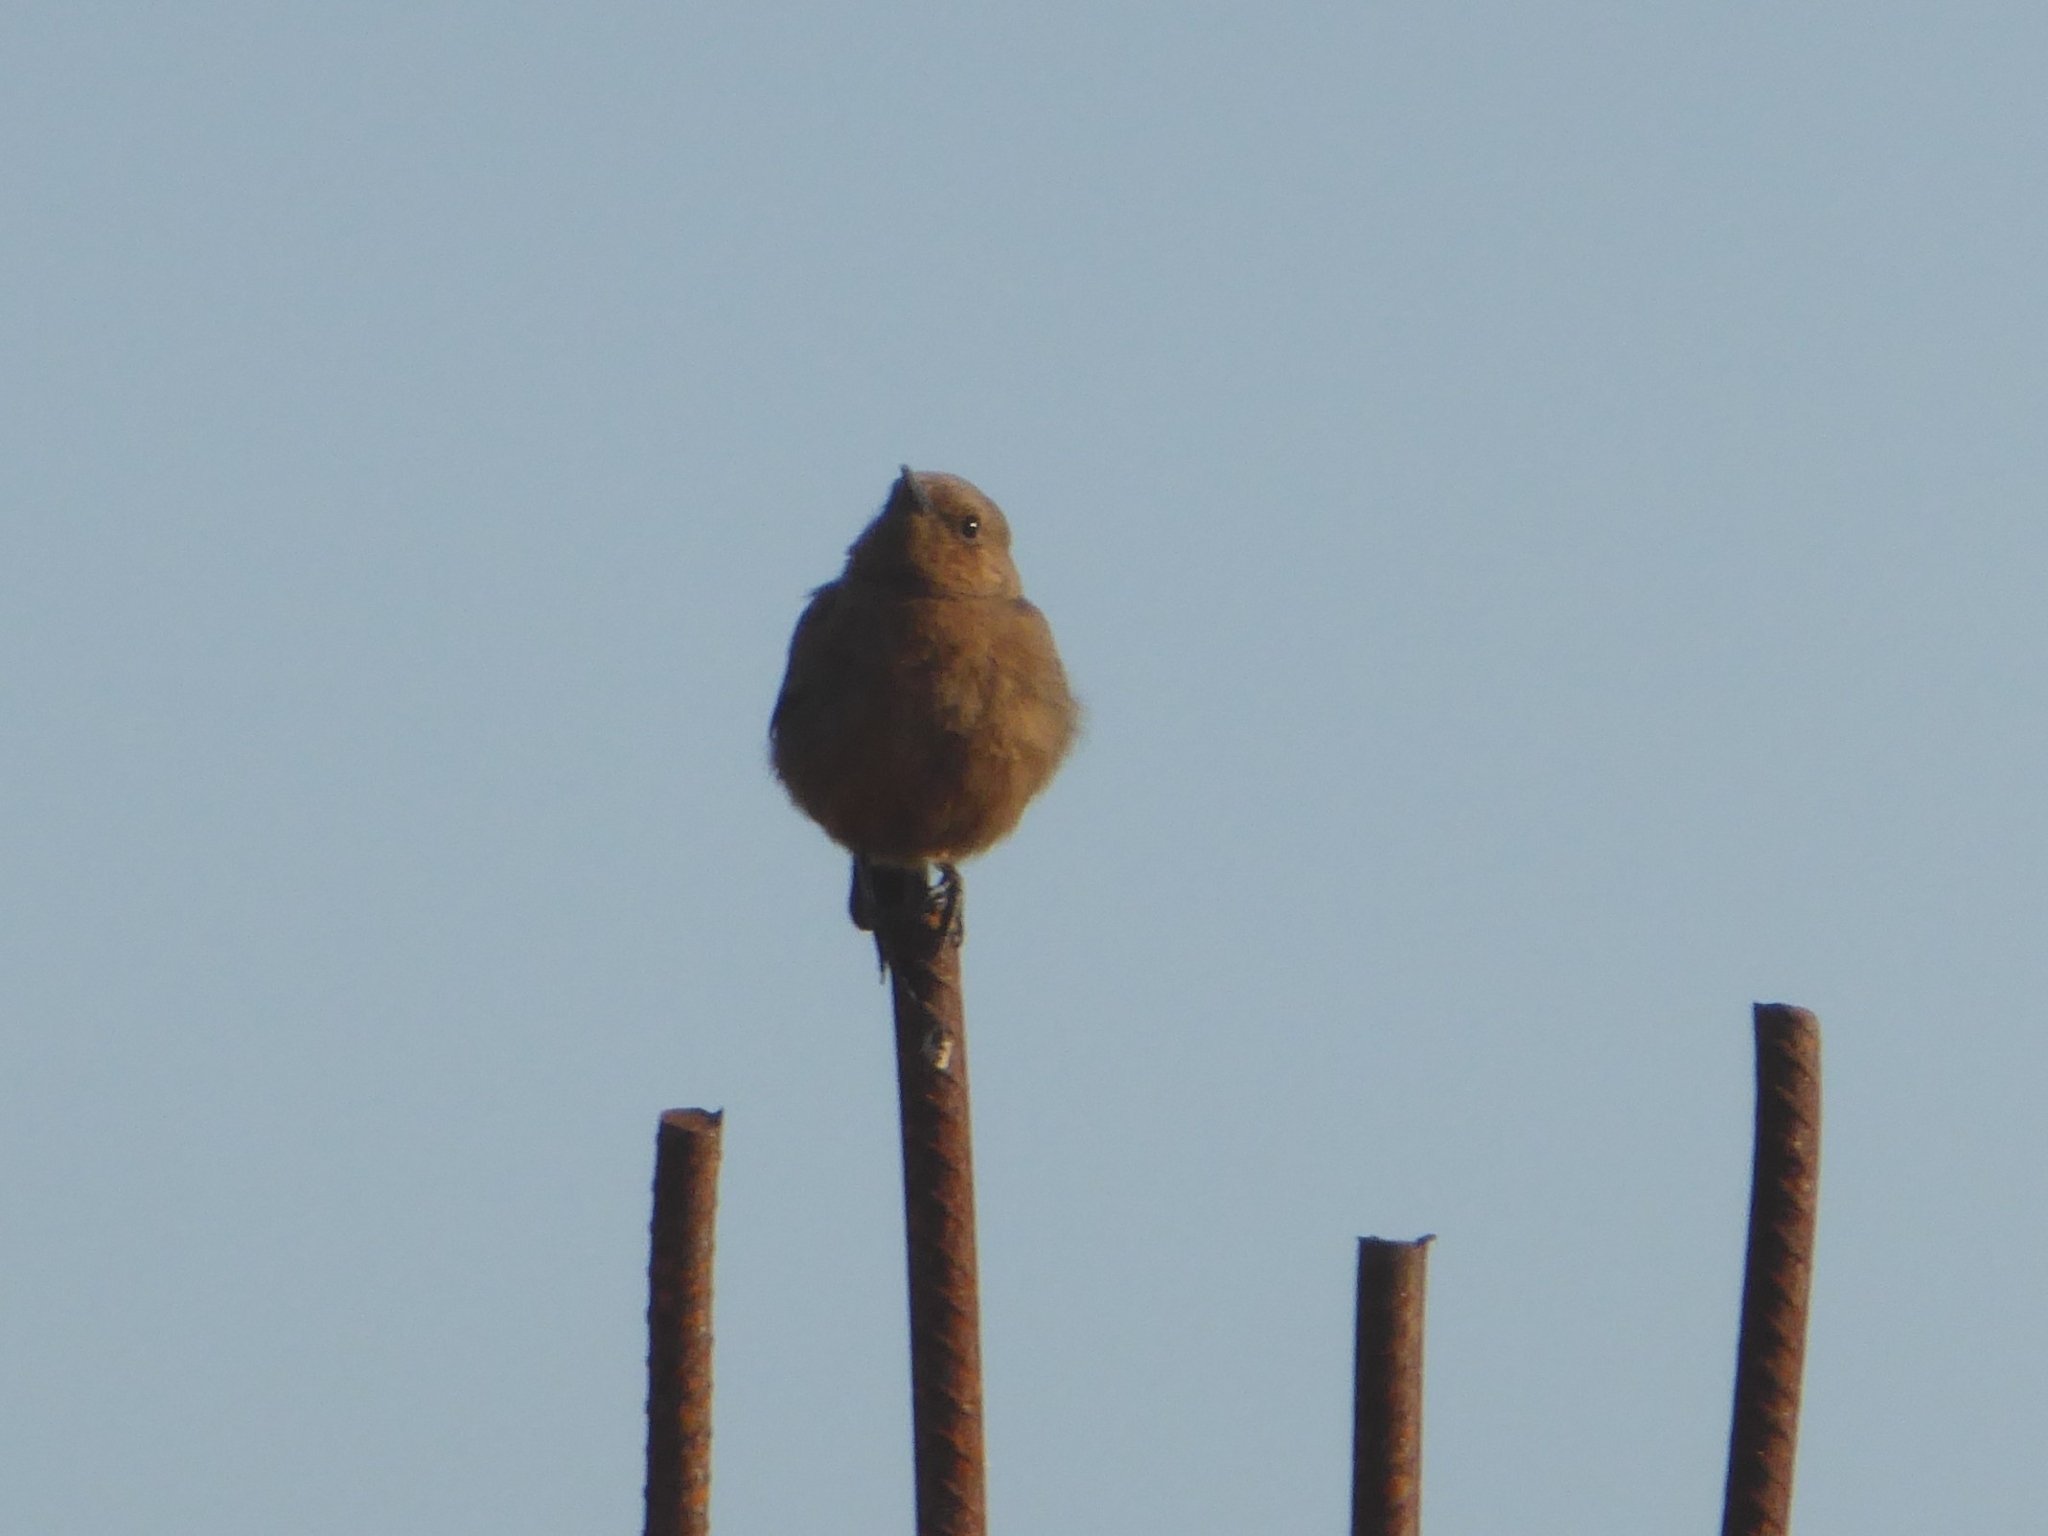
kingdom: Animalia
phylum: Chordata
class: Aves
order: Passeriformes
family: Muscicapidae
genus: Oenanthe
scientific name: Oenanthe fusca
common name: Brown rock chat
